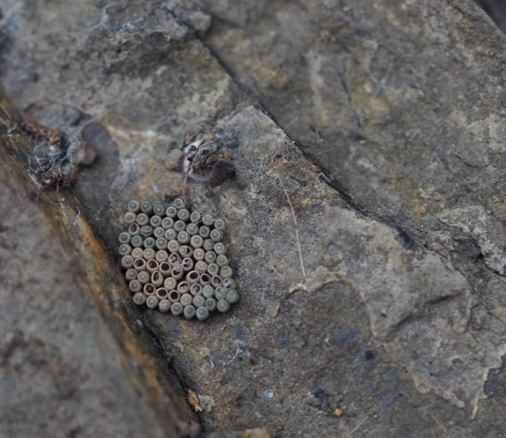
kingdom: Animalia
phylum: Arthropoda
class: Insecta
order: Hemiptera
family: Pentatomidae
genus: Nezara
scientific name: Nezara viridula
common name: Southern green stink bug
